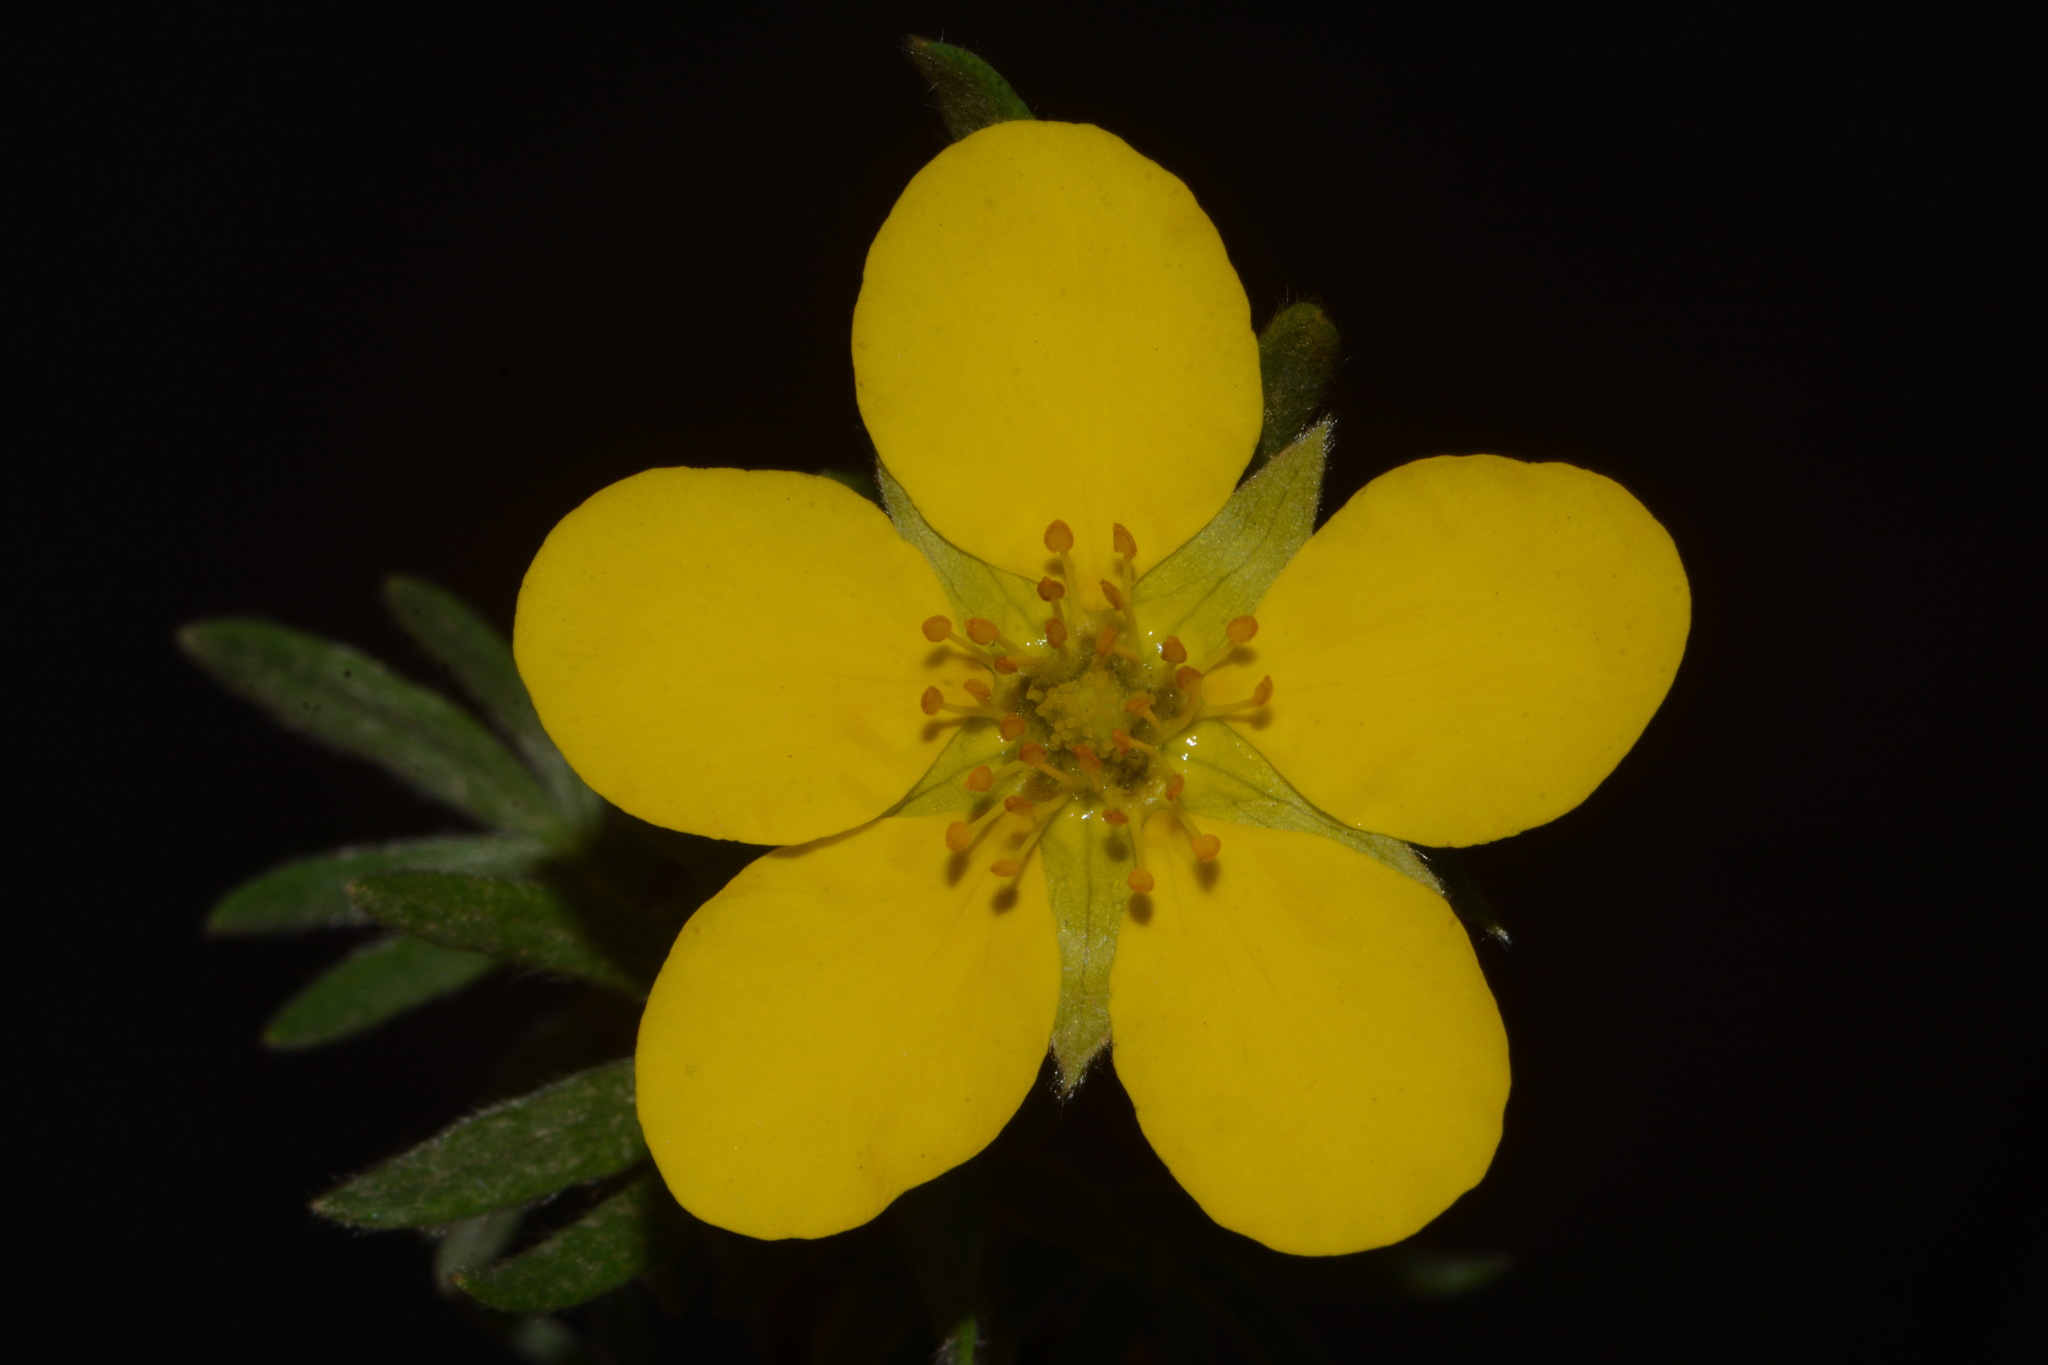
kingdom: Plantae
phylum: Tracheophyta
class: Magnoliopsida
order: Rosales
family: Rosaceae
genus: Dasiphora
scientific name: Dasiphora fruticosa
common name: Shrubby cinquefoil
